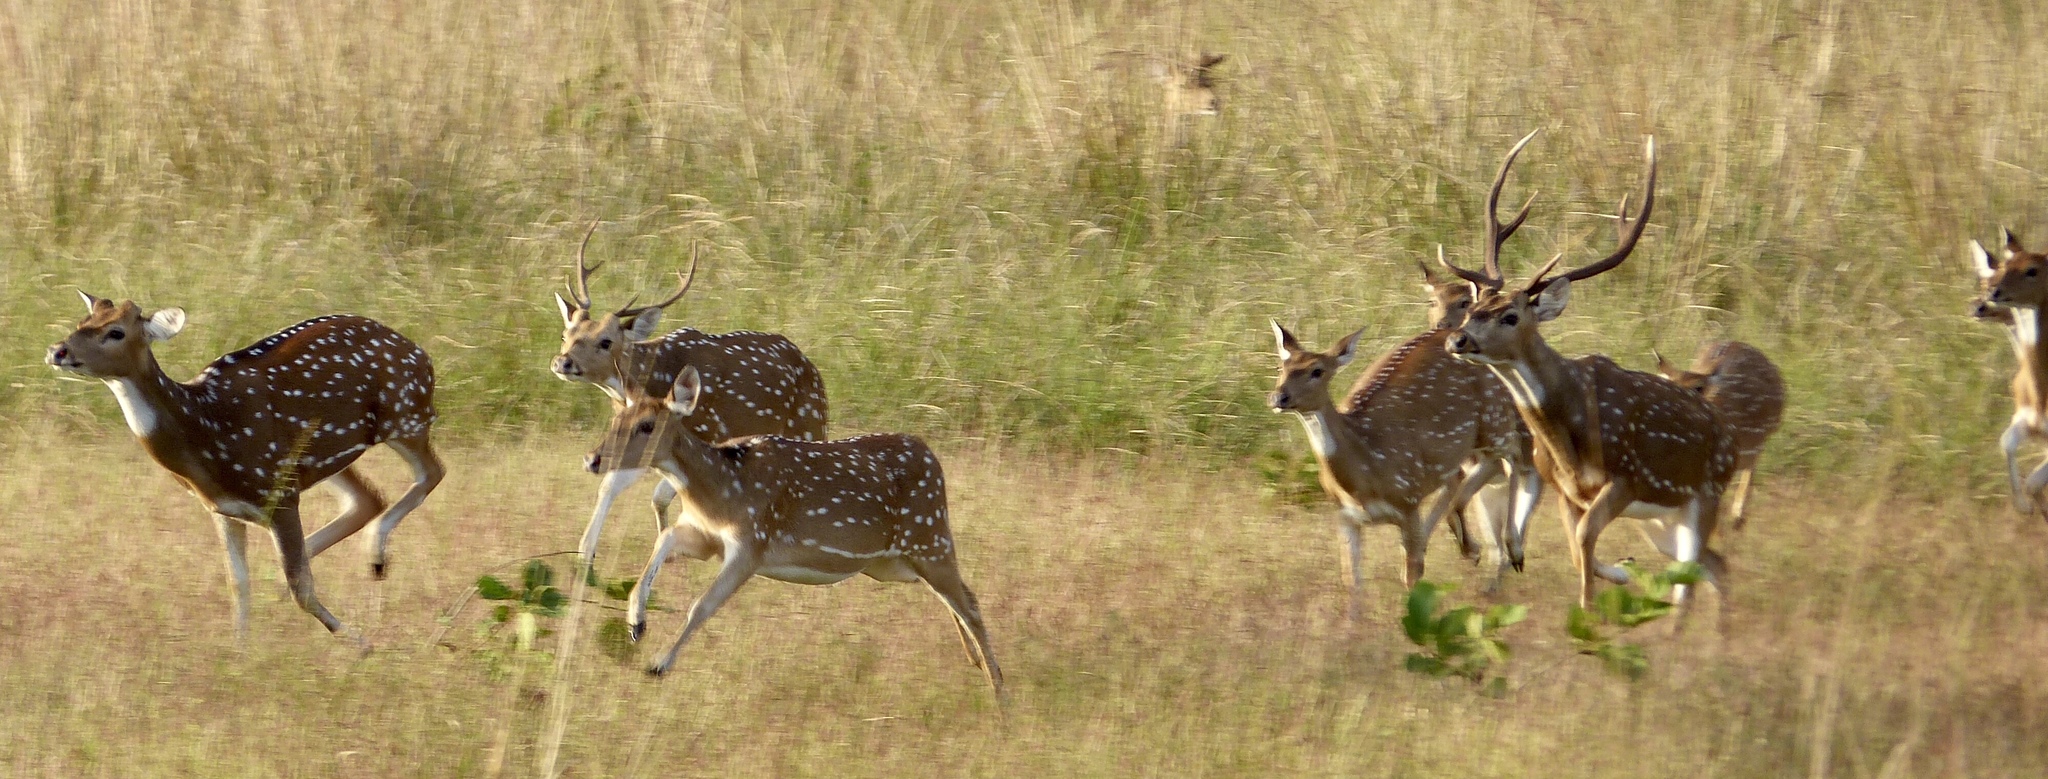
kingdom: Animalia
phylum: Chordata
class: Mammalia
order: Artiodactyla
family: Cervidae
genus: Axis
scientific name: Axis axis
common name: Chital
